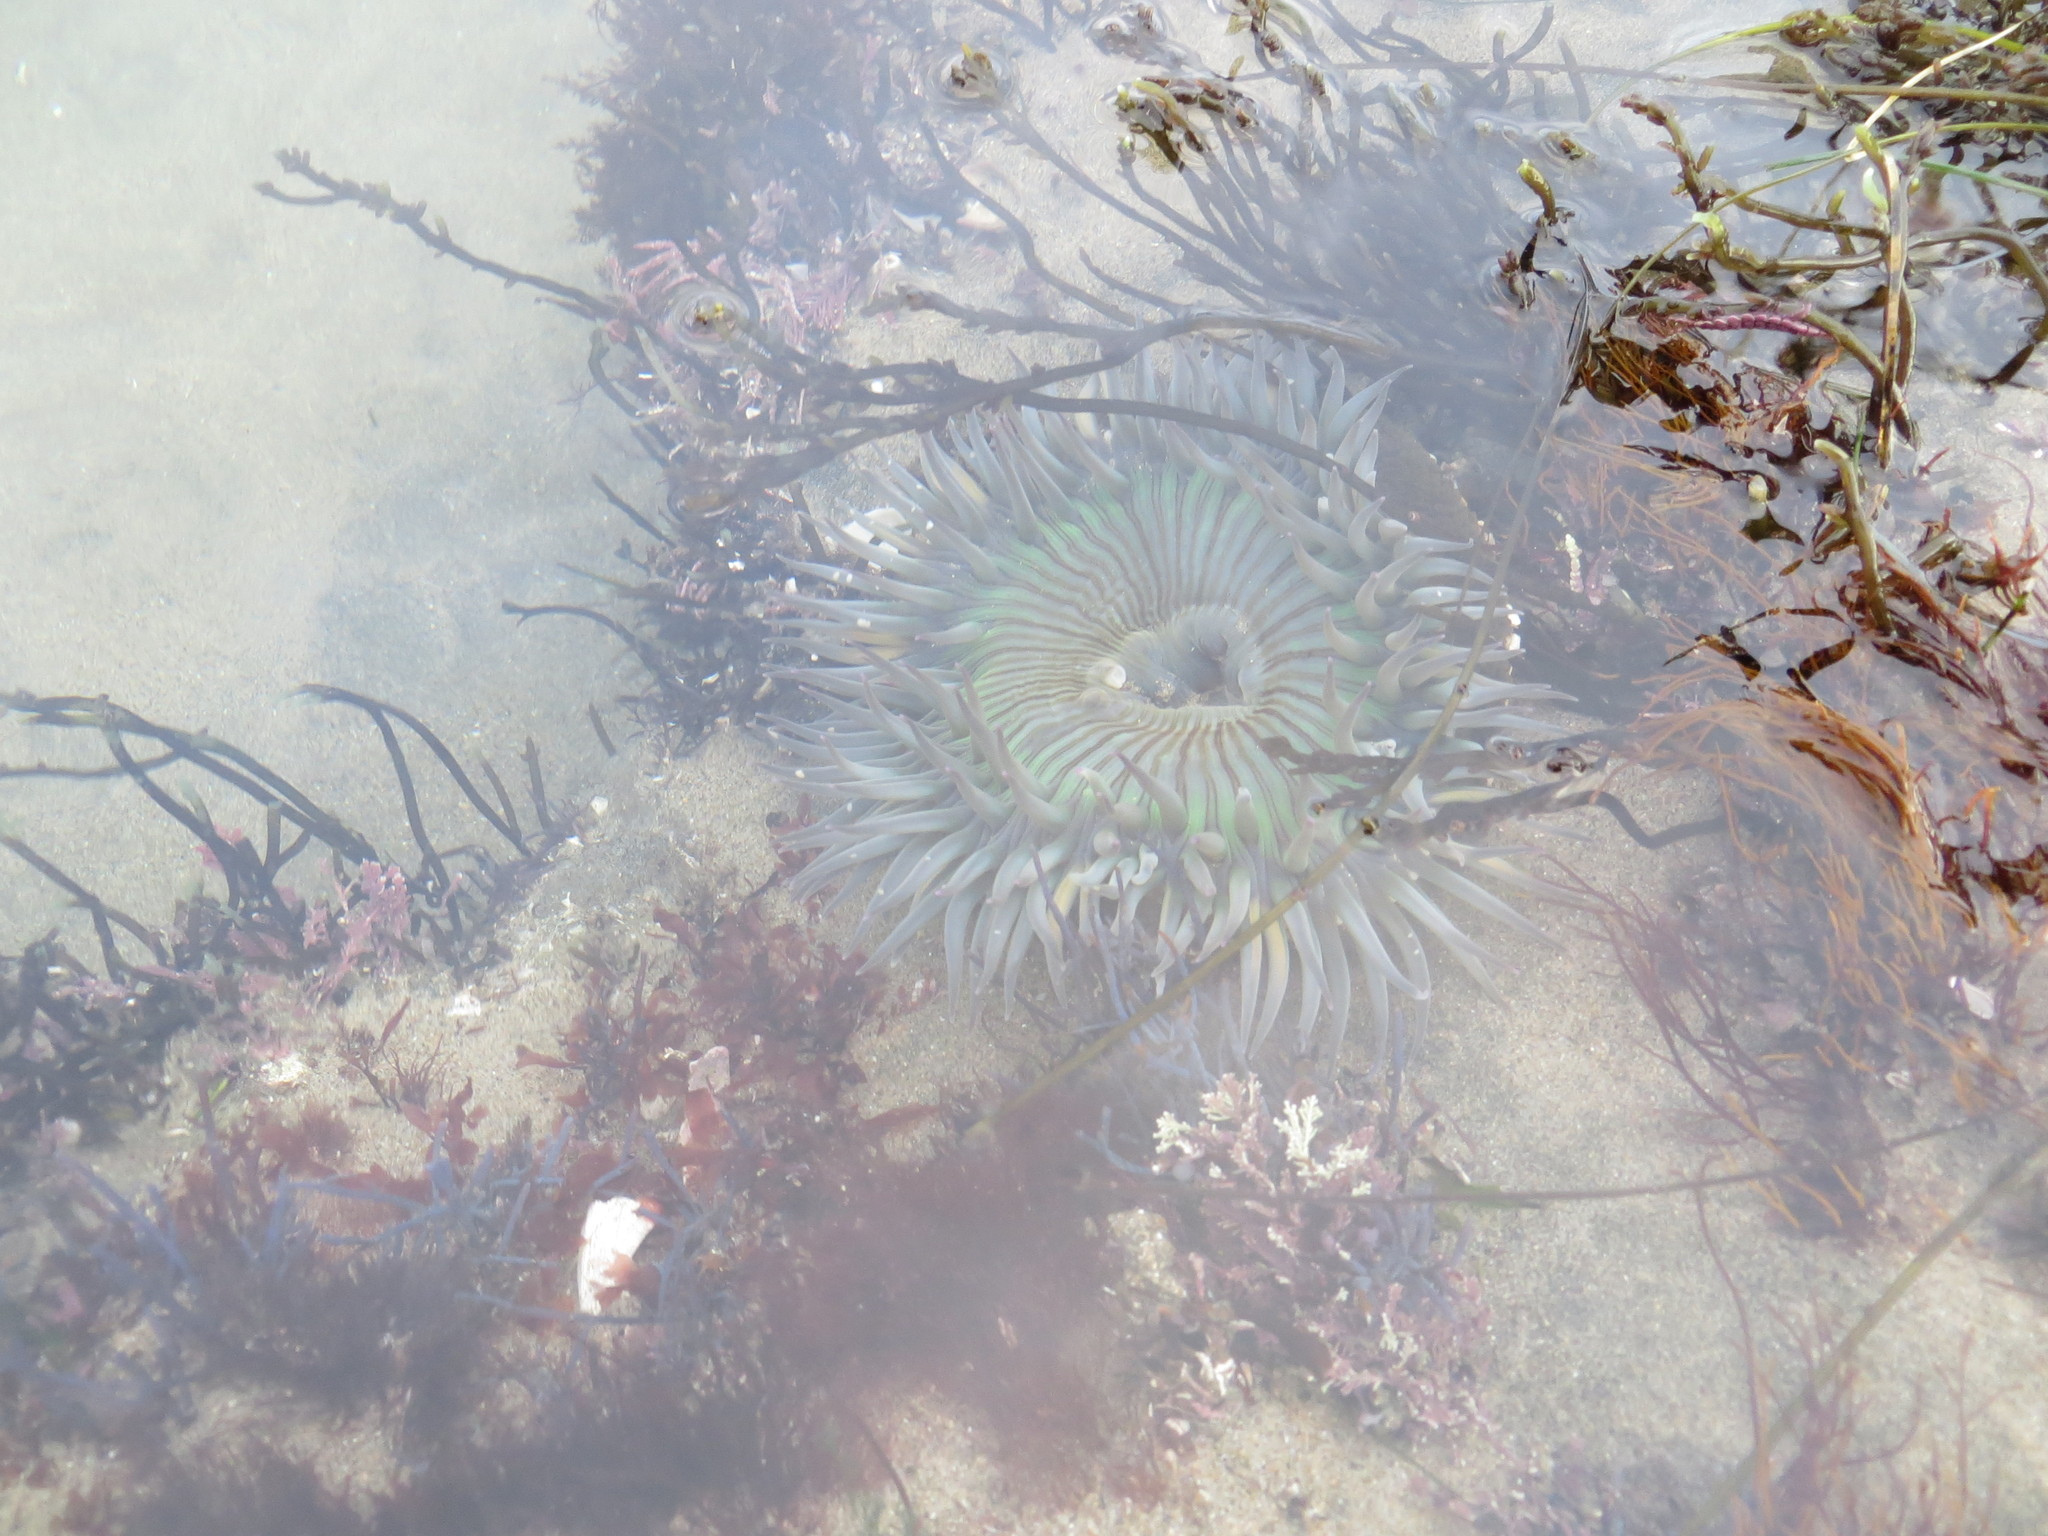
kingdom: Animalia
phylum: Cnidaria
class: Anthozoa
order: Actiniaria
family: Actiniidae
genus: Anthopleura
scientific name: Anthopleura sola
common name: Sun anemone
